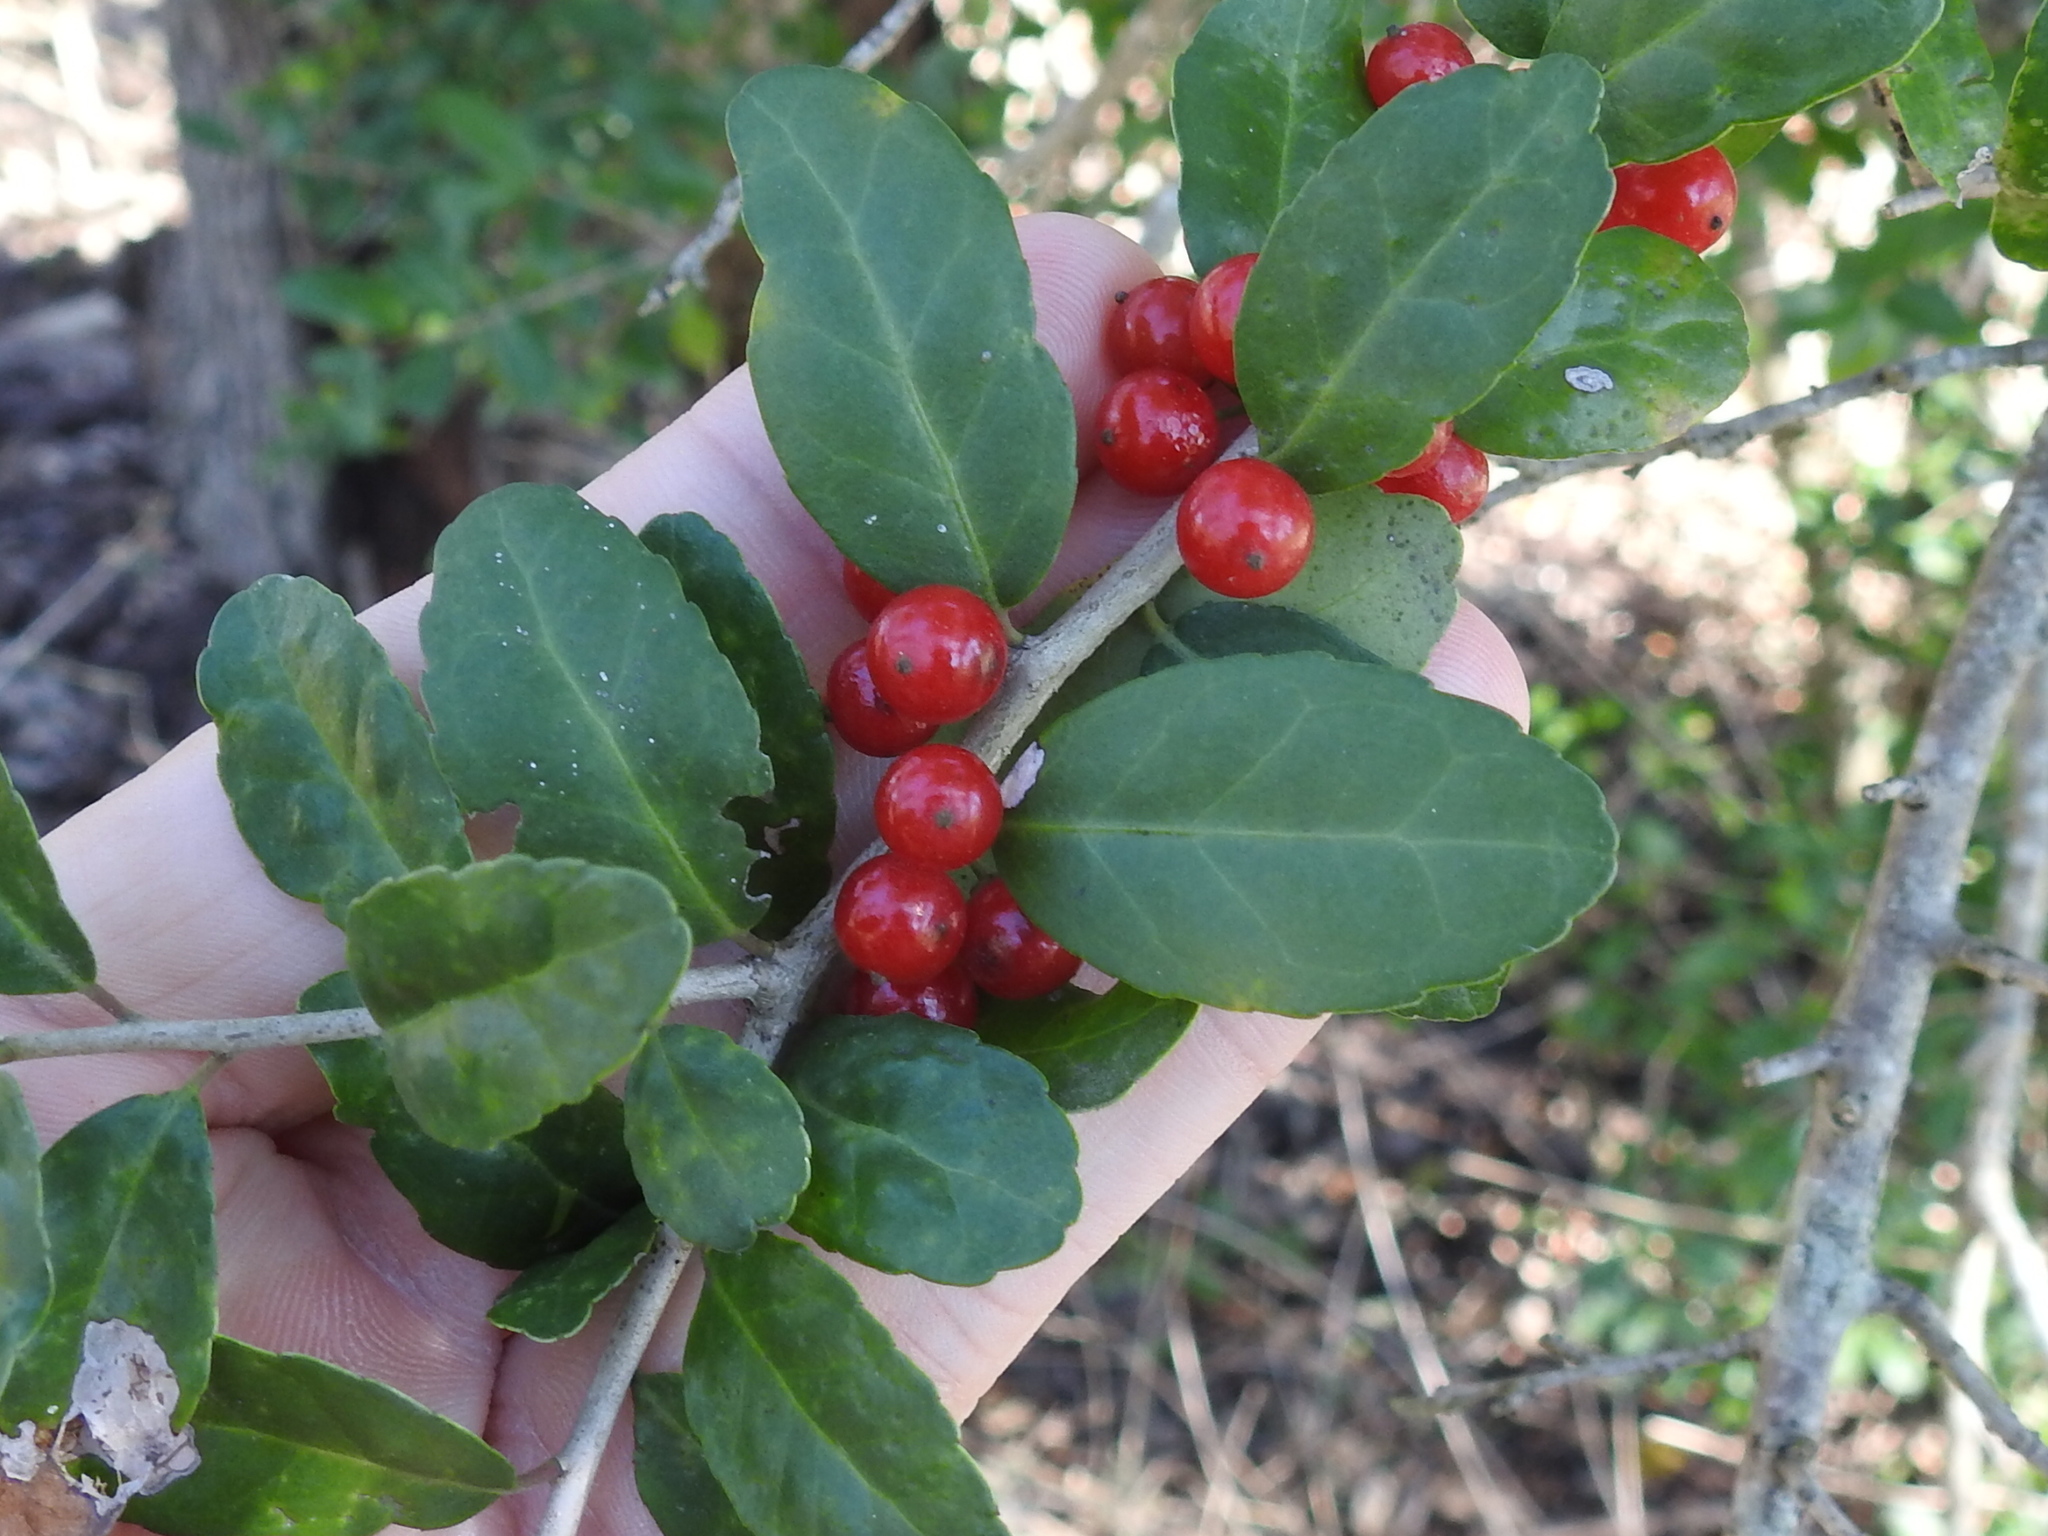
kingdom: Plantae
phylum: Tracheophyta
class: Magnoliopsida
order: Aquifoliales
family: Aquifoliaceae
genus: Ilex
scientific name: Ilex vomitoria
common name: Yaupon holly
